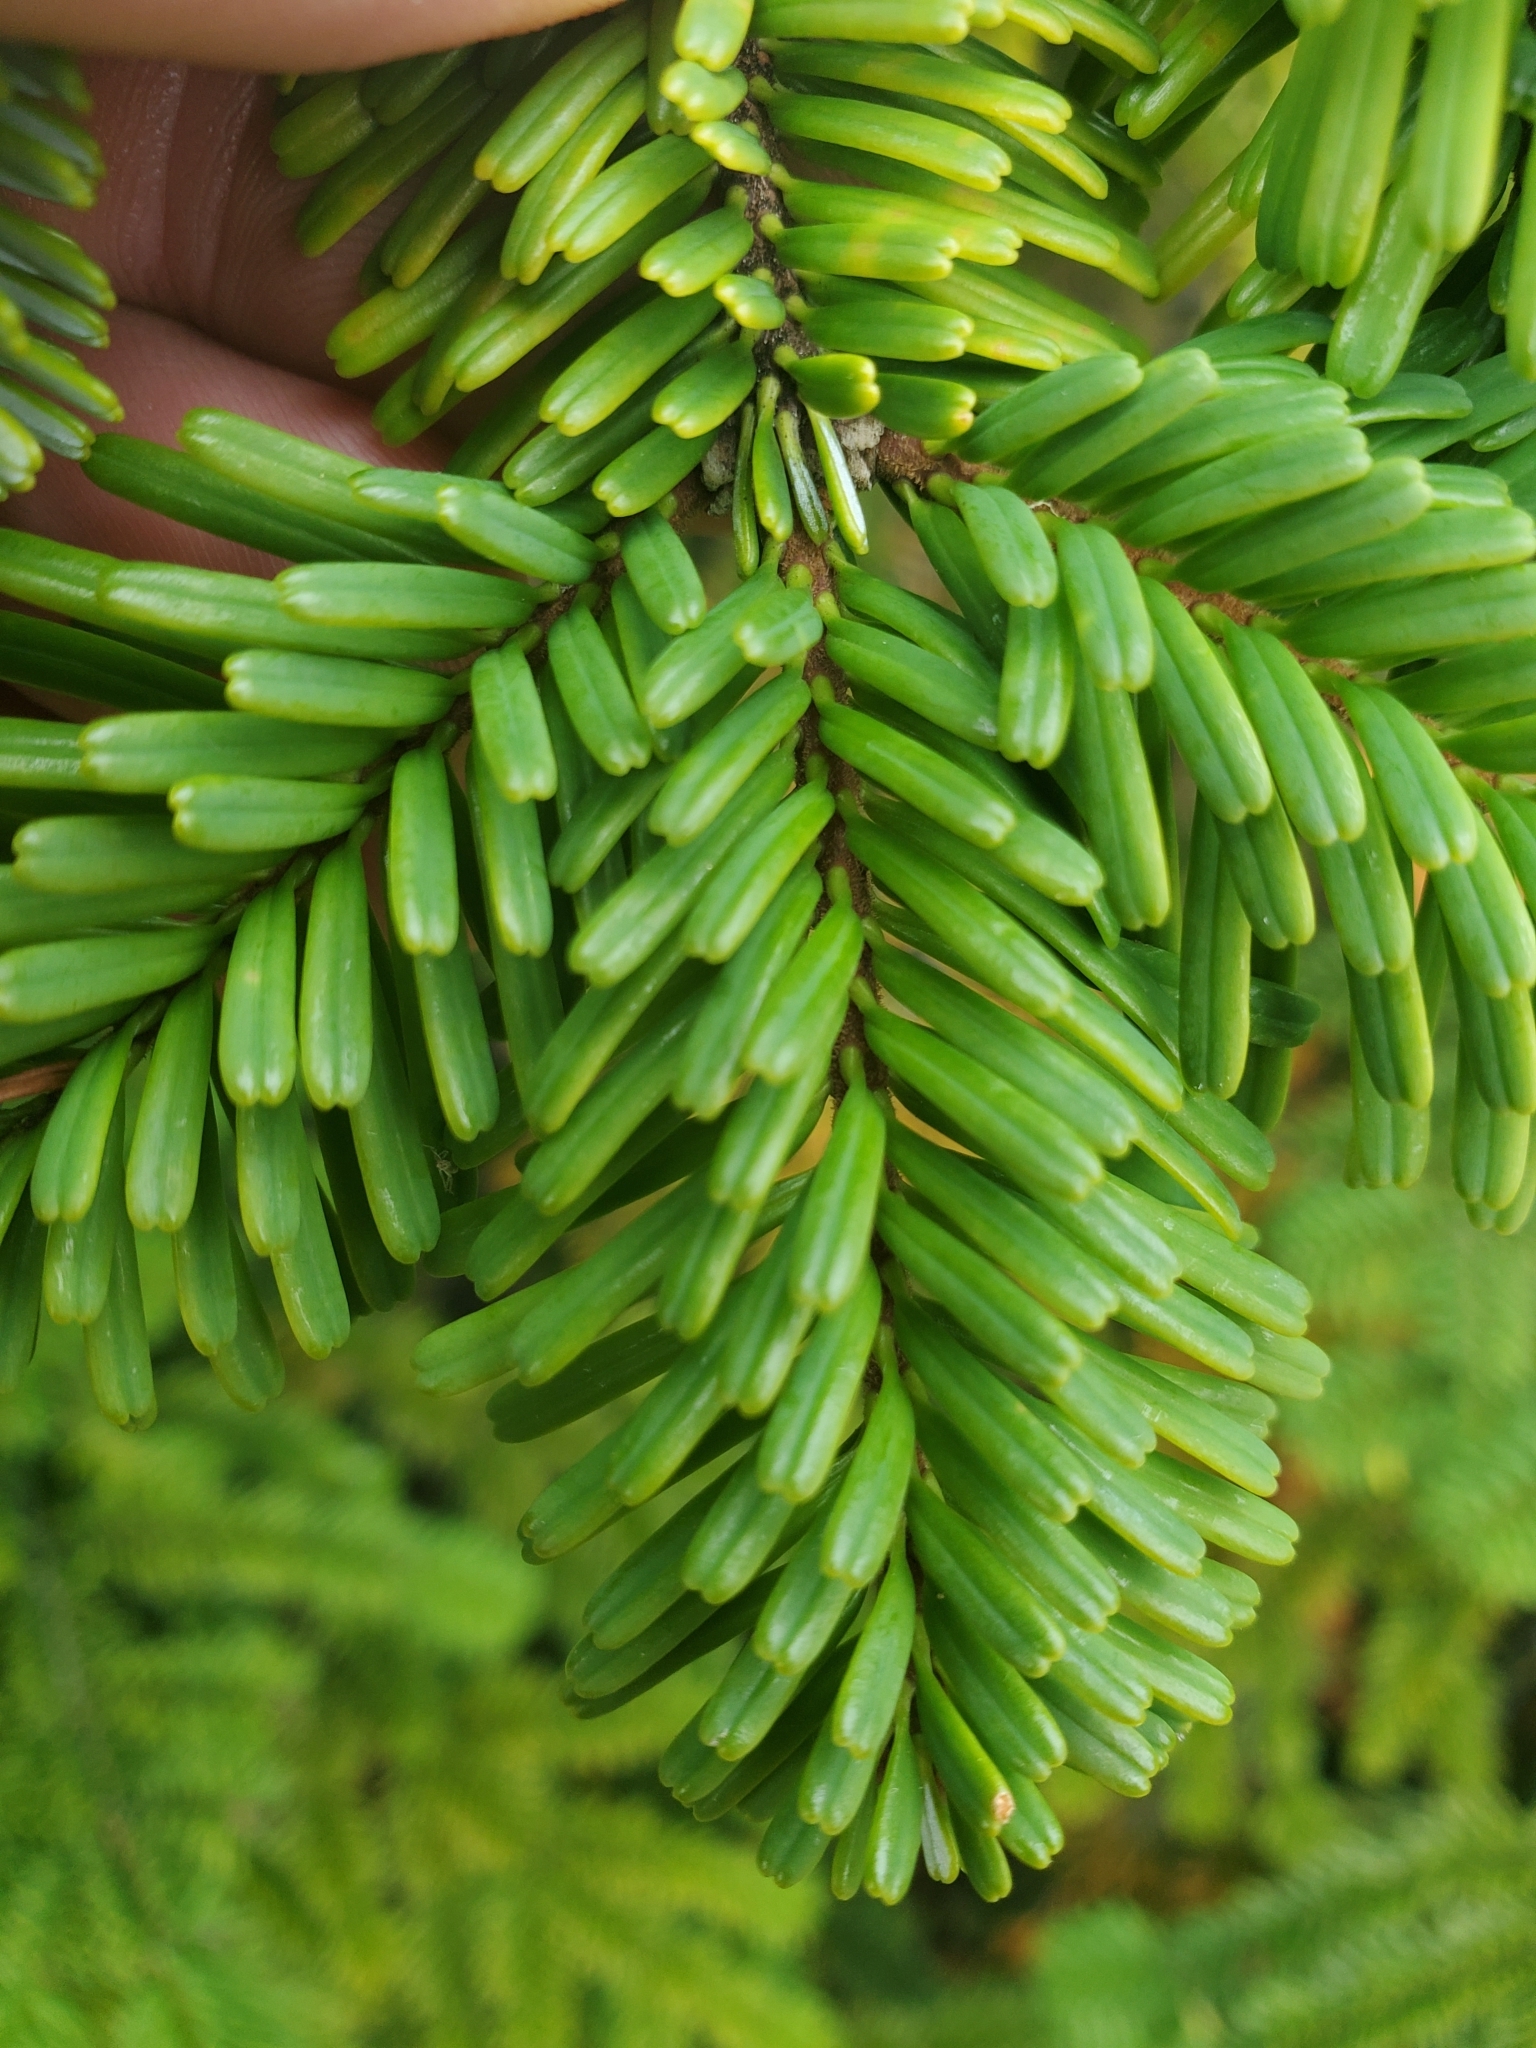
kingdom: Plantae
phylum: Tracheophyta
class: Pinopsida
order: Pinales
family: Pinaceae
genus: Abies
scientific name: Abies amabilis
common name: Pacific silver fir
